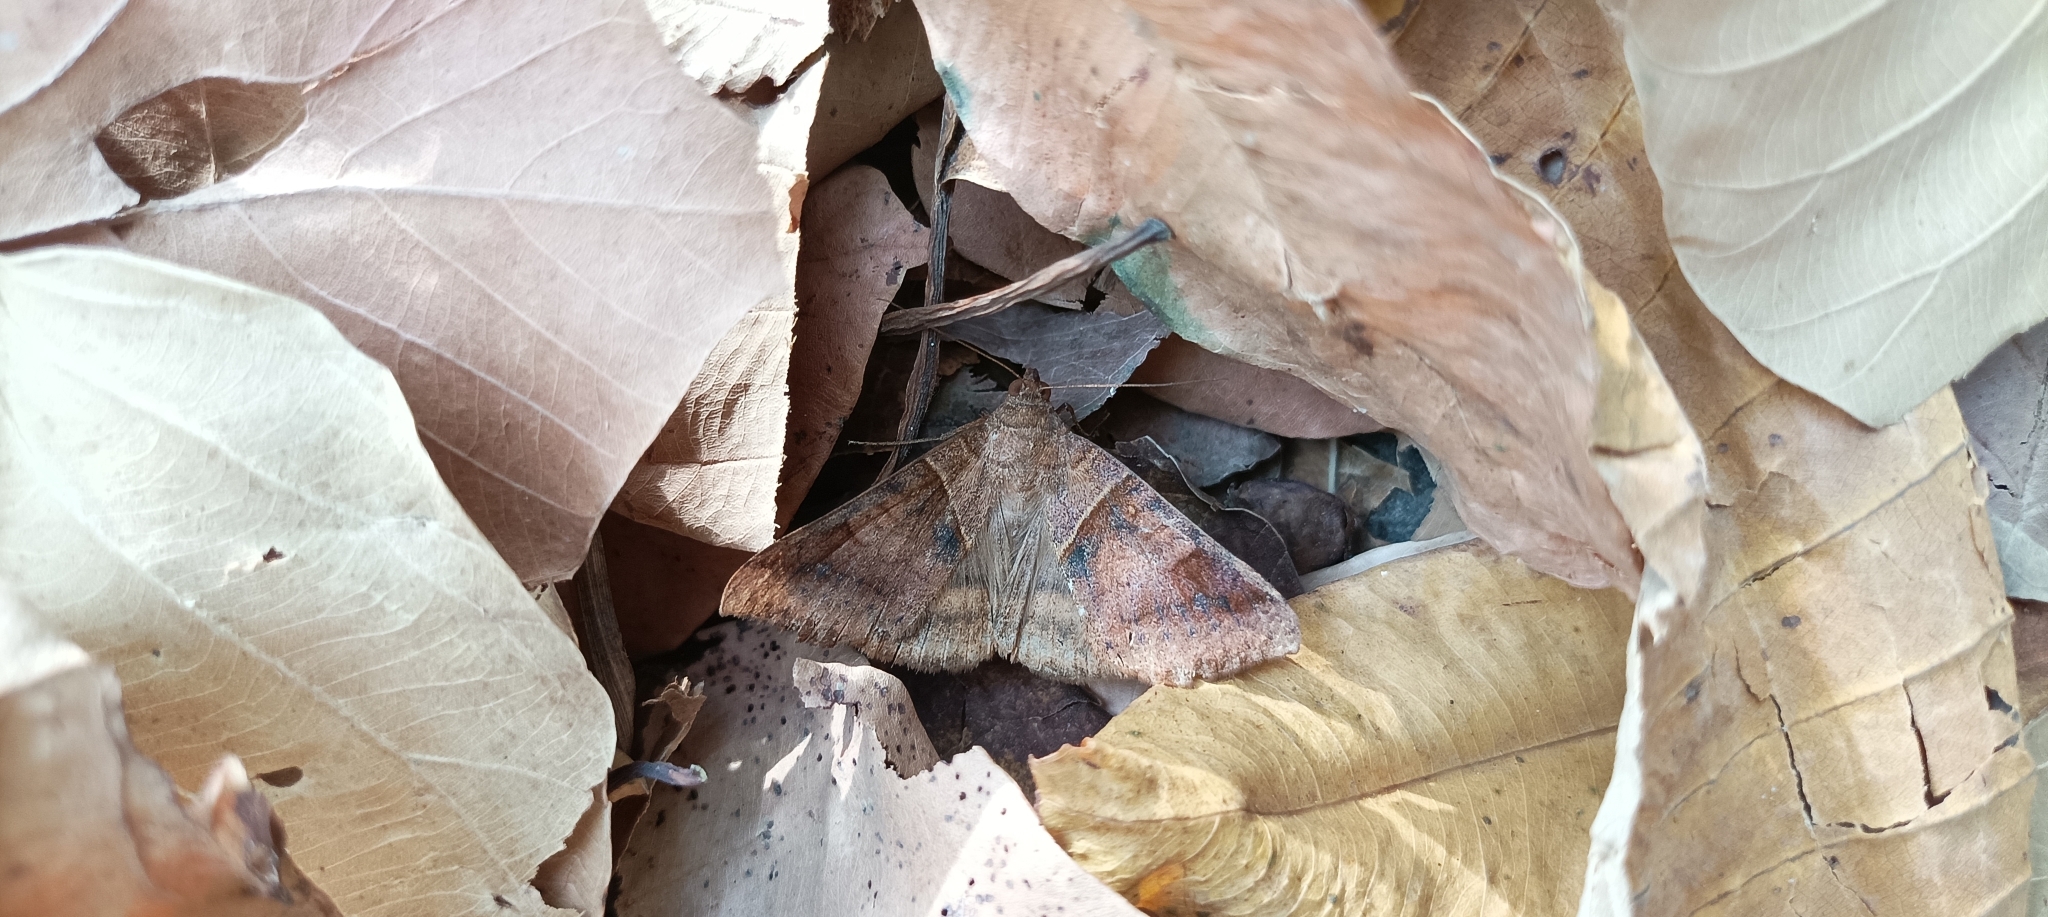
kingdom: Animalia
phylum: Arthropoda
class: Insecta
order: Lepidoptera
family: Erebidae
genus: Mocis
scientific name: Mocis undata
